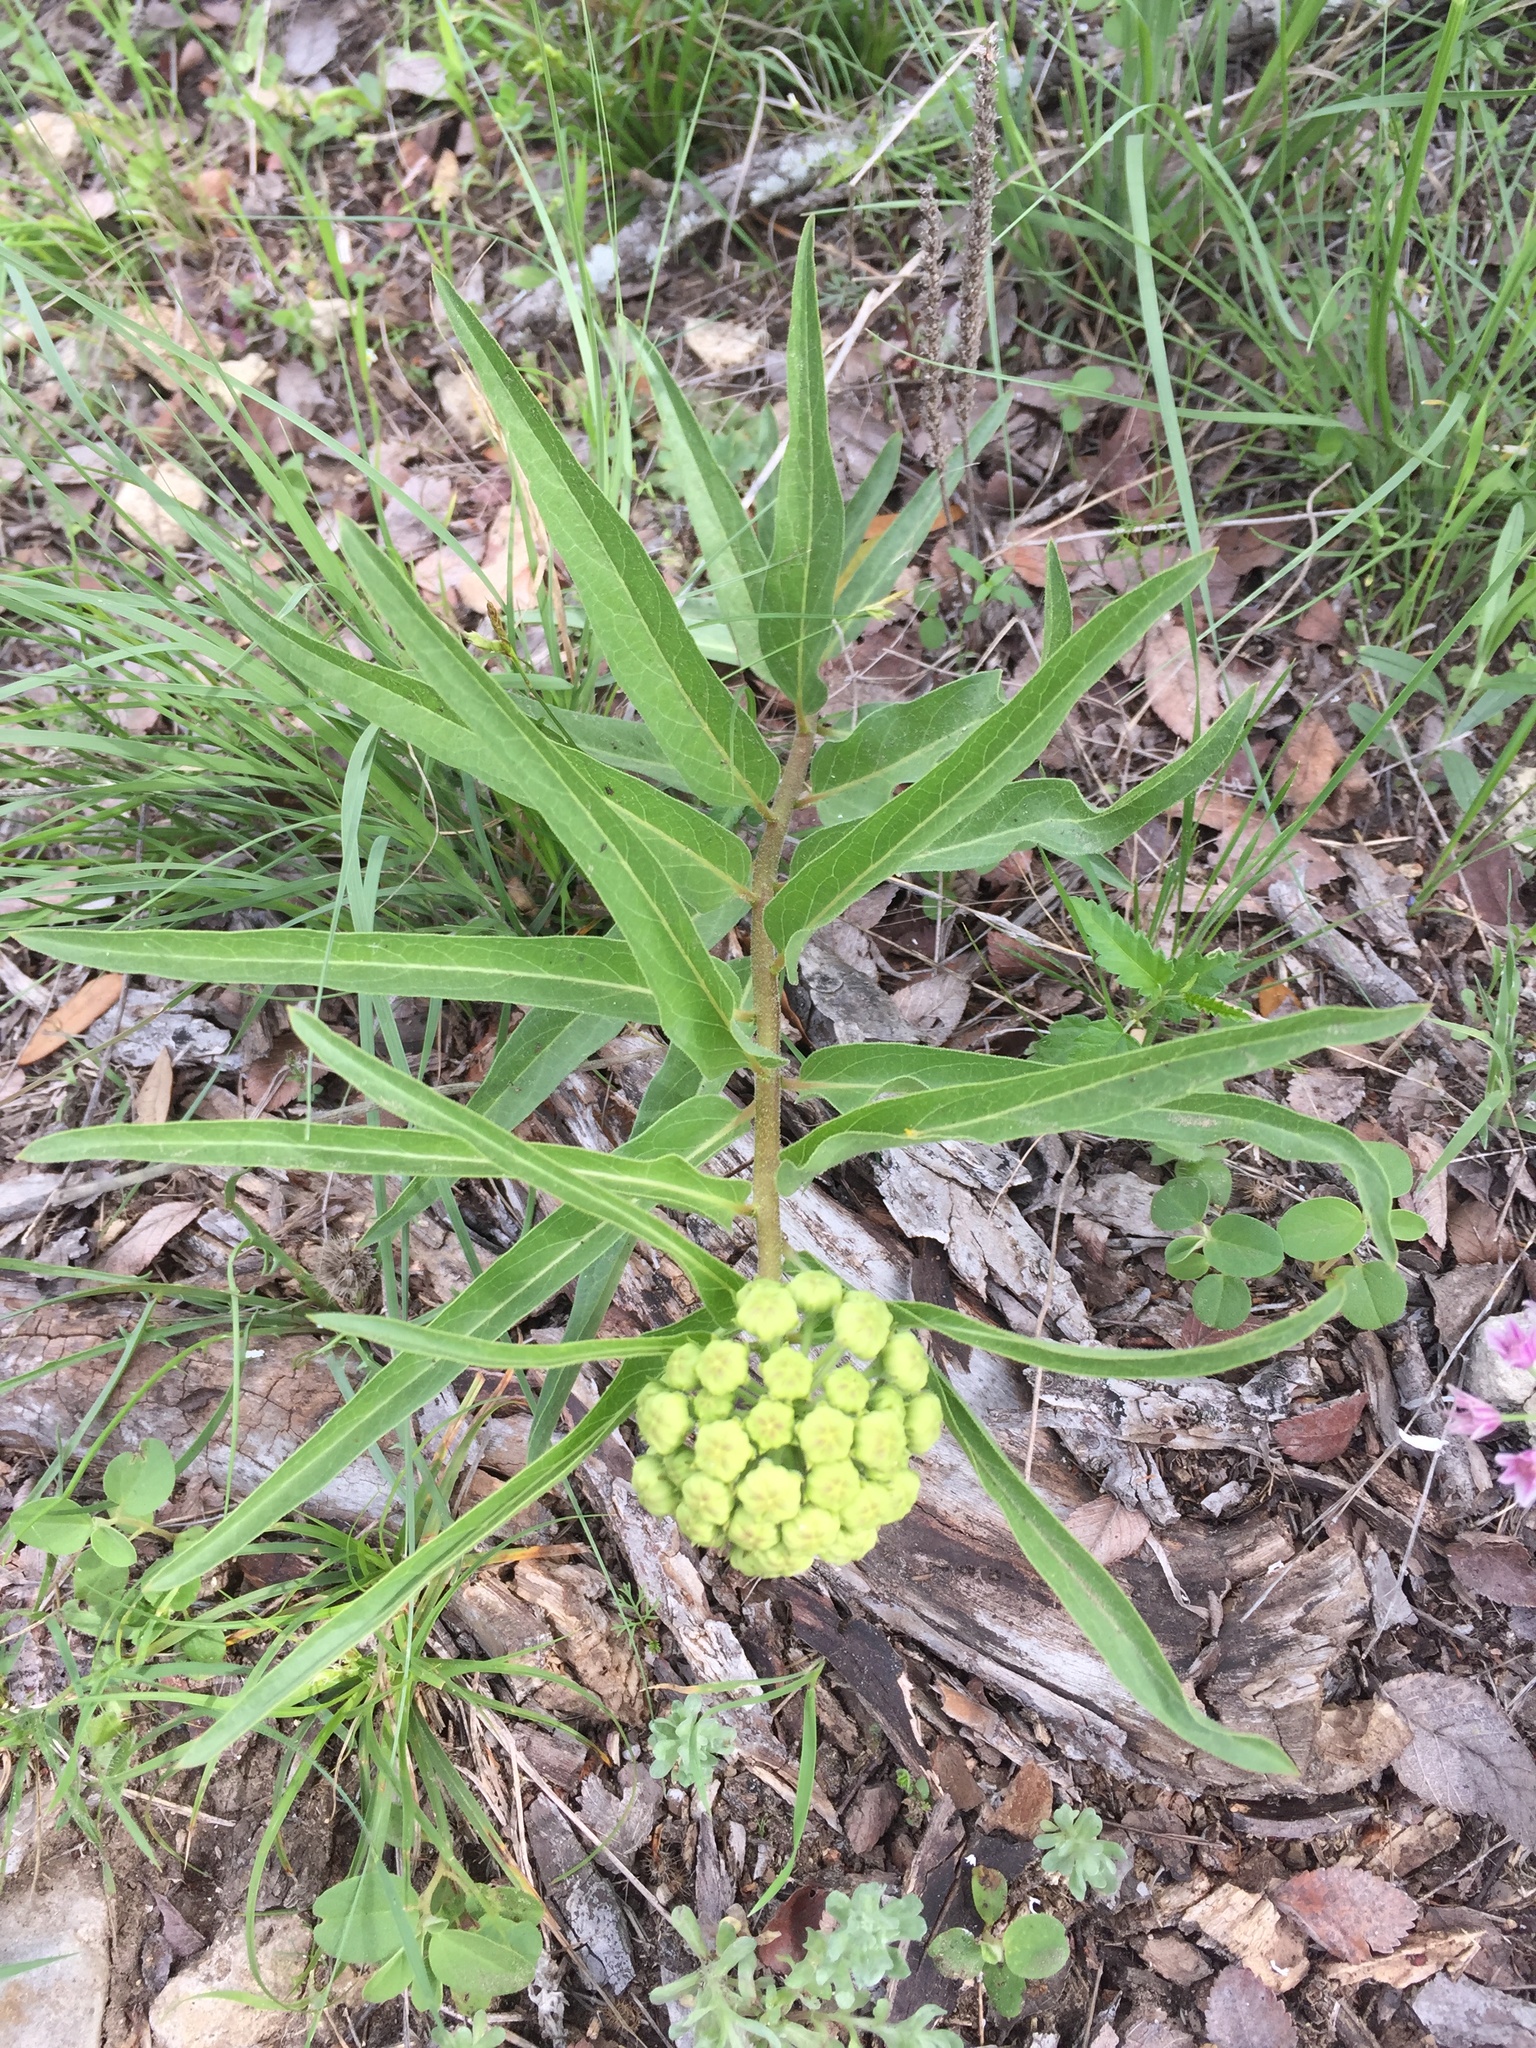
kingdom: Plantae
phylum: Tracheophyta
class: Magnoliopsida
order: Gentianales
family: Apocynaceae
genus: Asclepias
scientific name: Asclepias asperula
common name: Antelope horns
